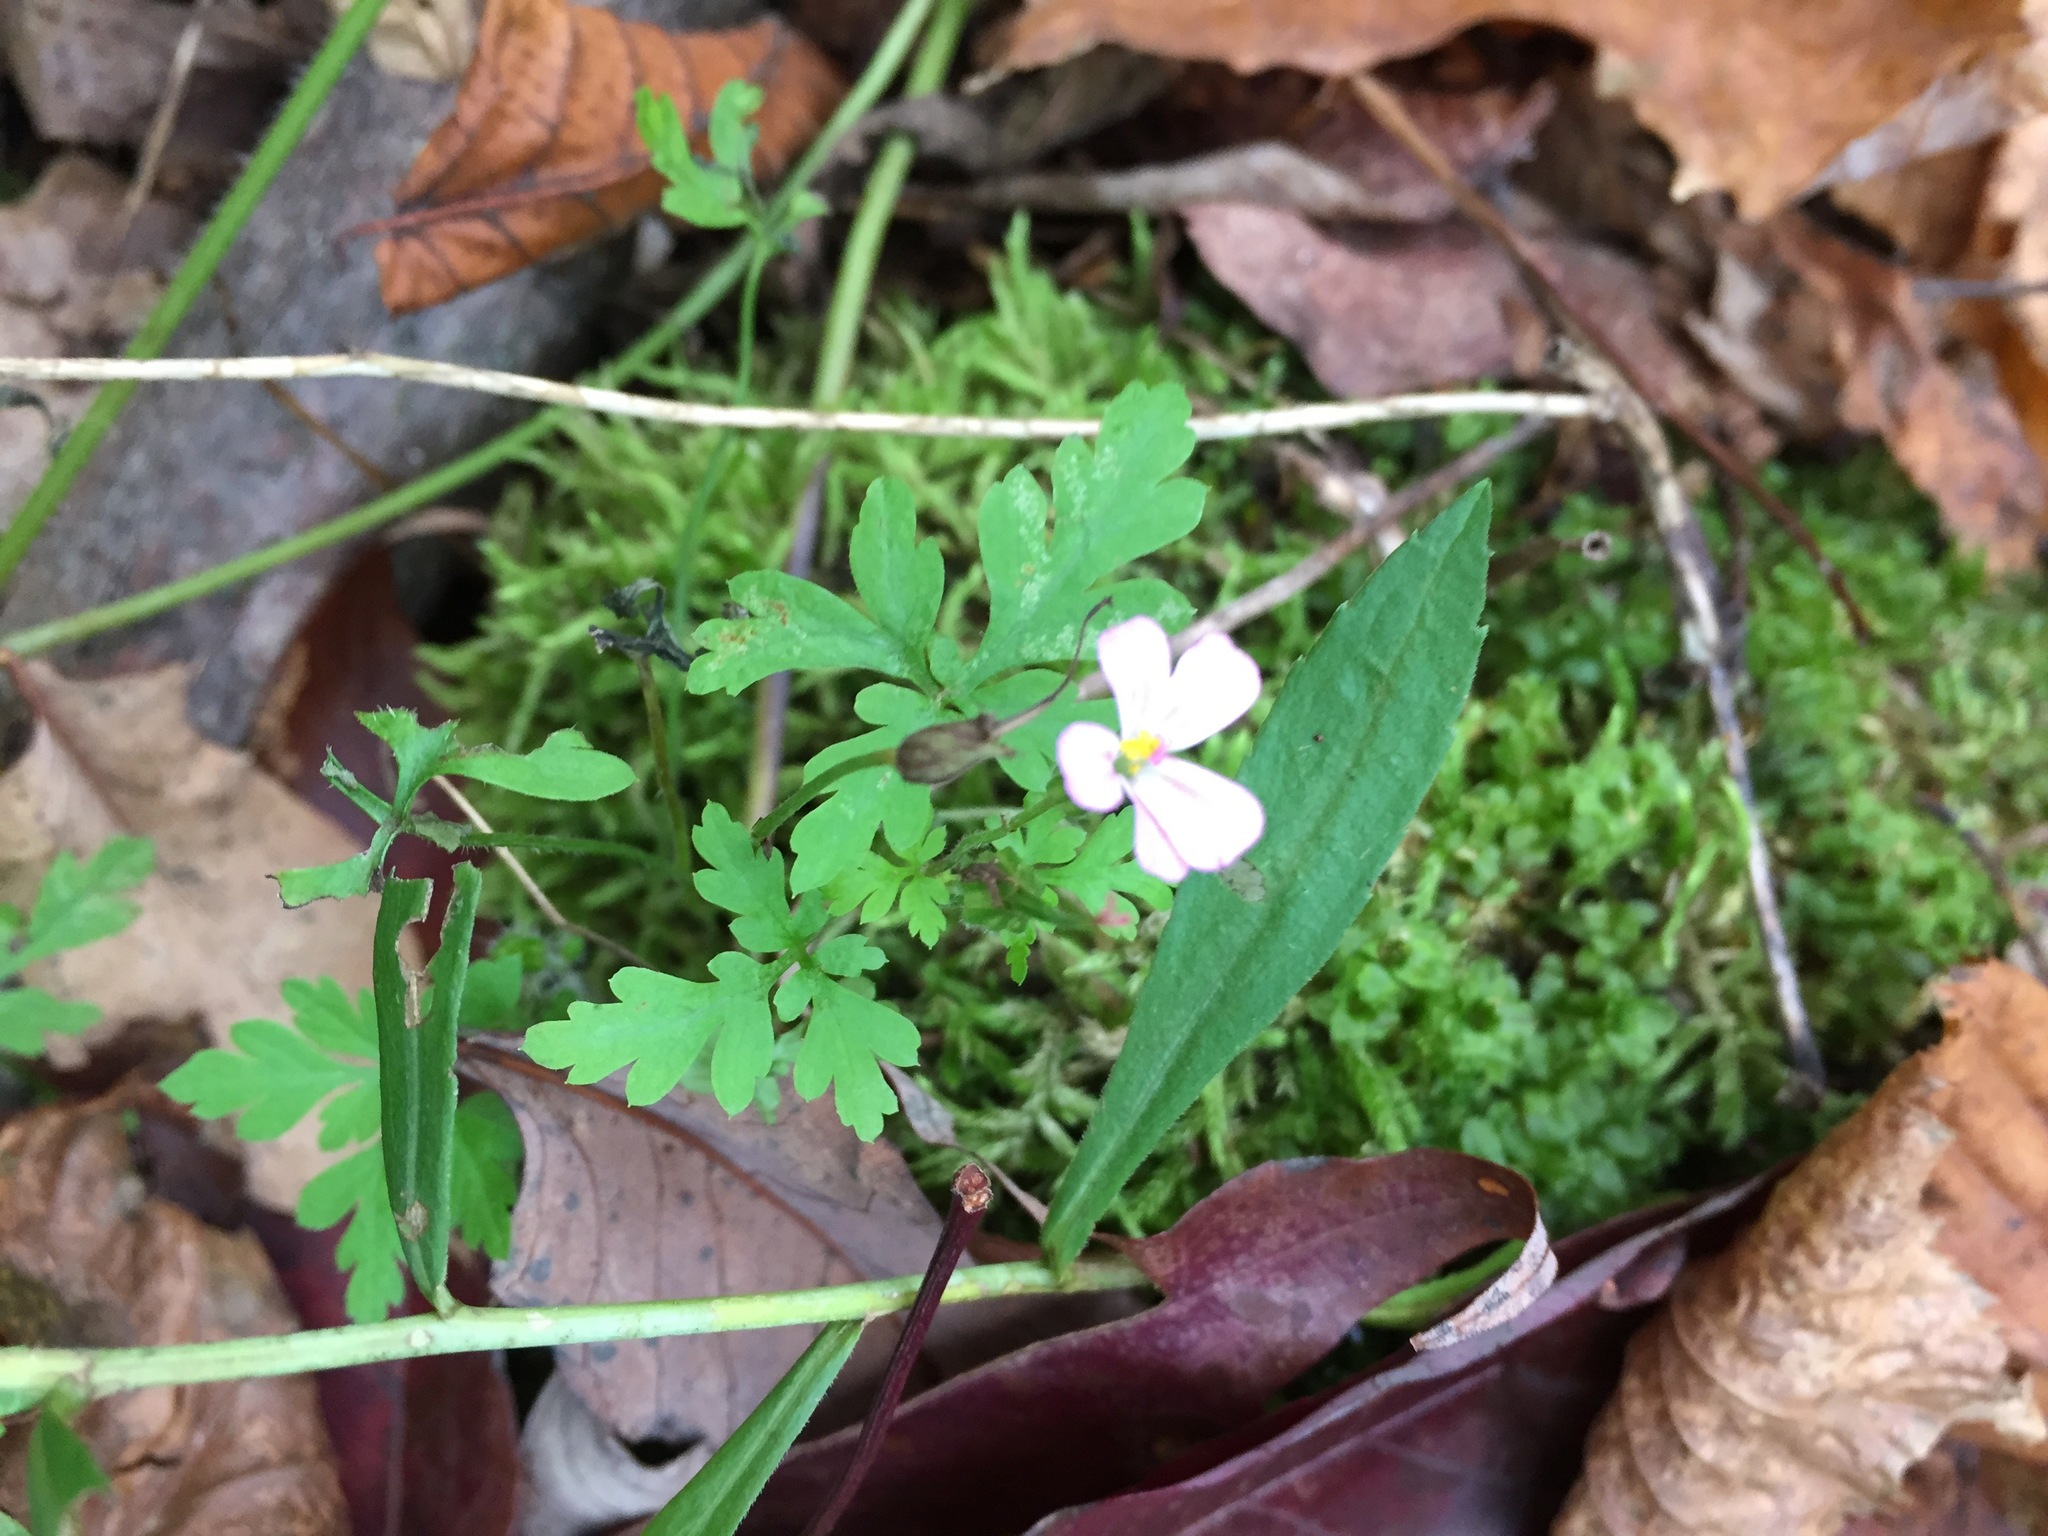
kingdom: Plantae
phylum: Tracheophyta
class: Magnoliopsida
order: Geraniales
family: Geraniaceae
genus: Geranium
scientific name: Geranium robertianum
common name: Herb-robert
